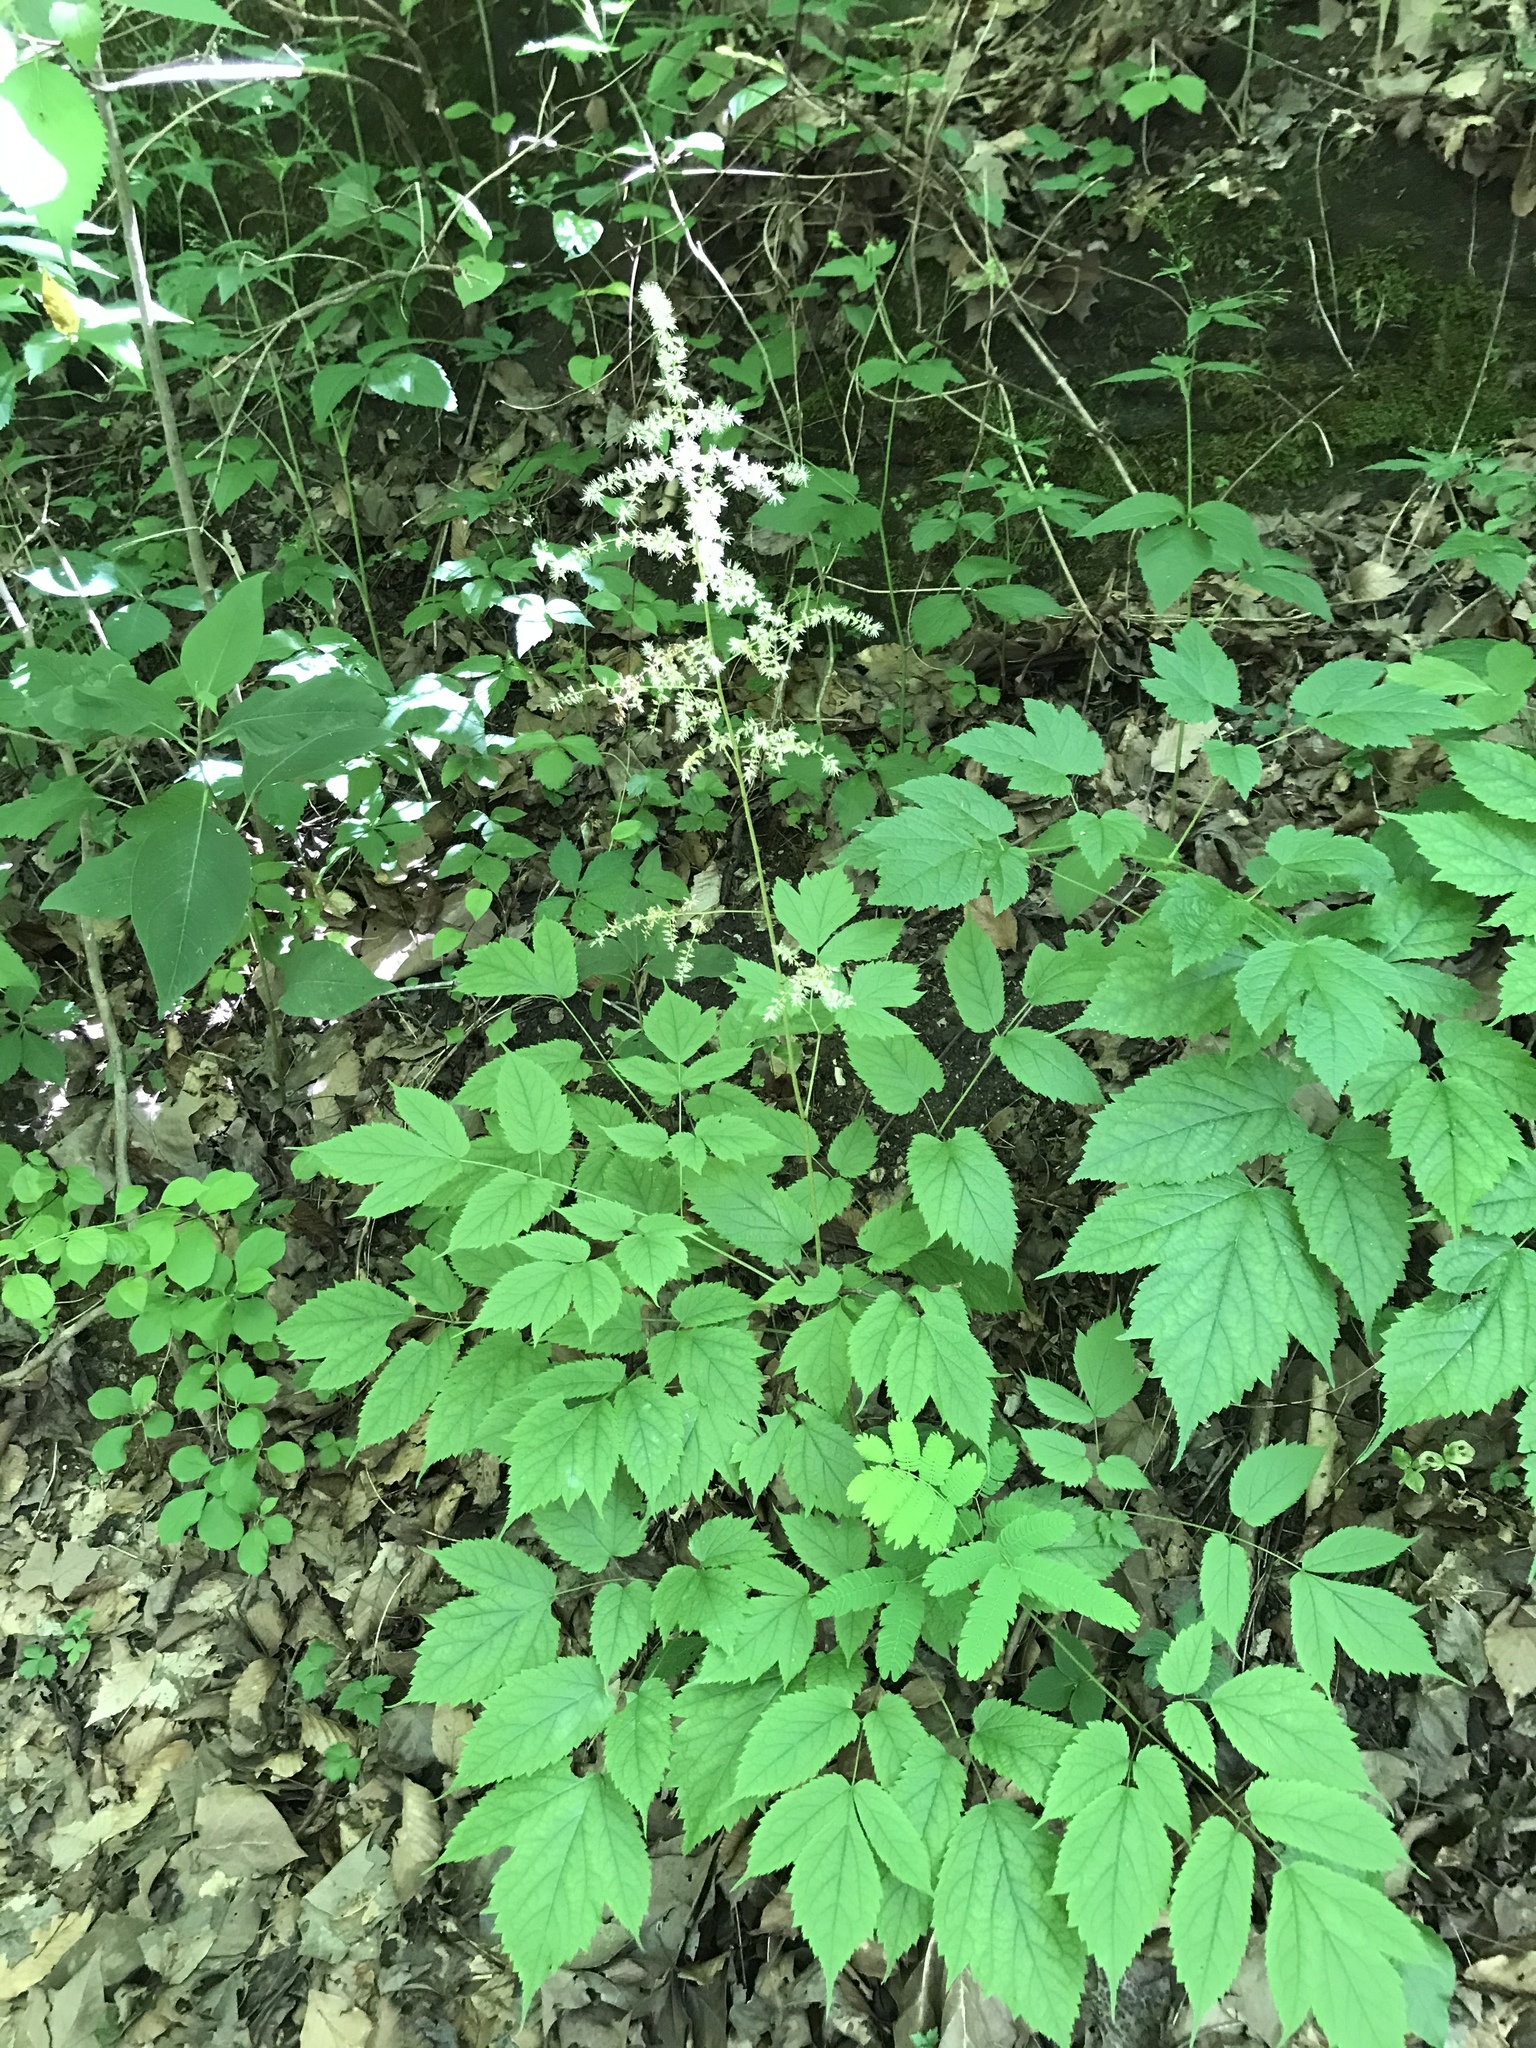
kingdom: Plantae
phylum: Tracheophyta
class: Magnoliopsida
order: Saxifragales
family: Saxifragaceae
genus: Astilbe
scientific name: Astilbe biternata
